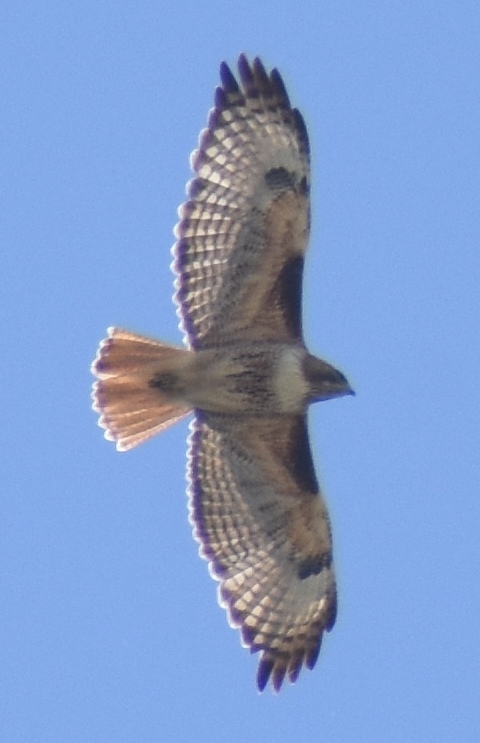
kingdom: Animalia
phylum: Chordata
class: Aves
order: Accipitriformes
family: Accipitridae
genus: Buteo
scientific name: Buteo jamaicensis
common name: Red-tailed hawk
